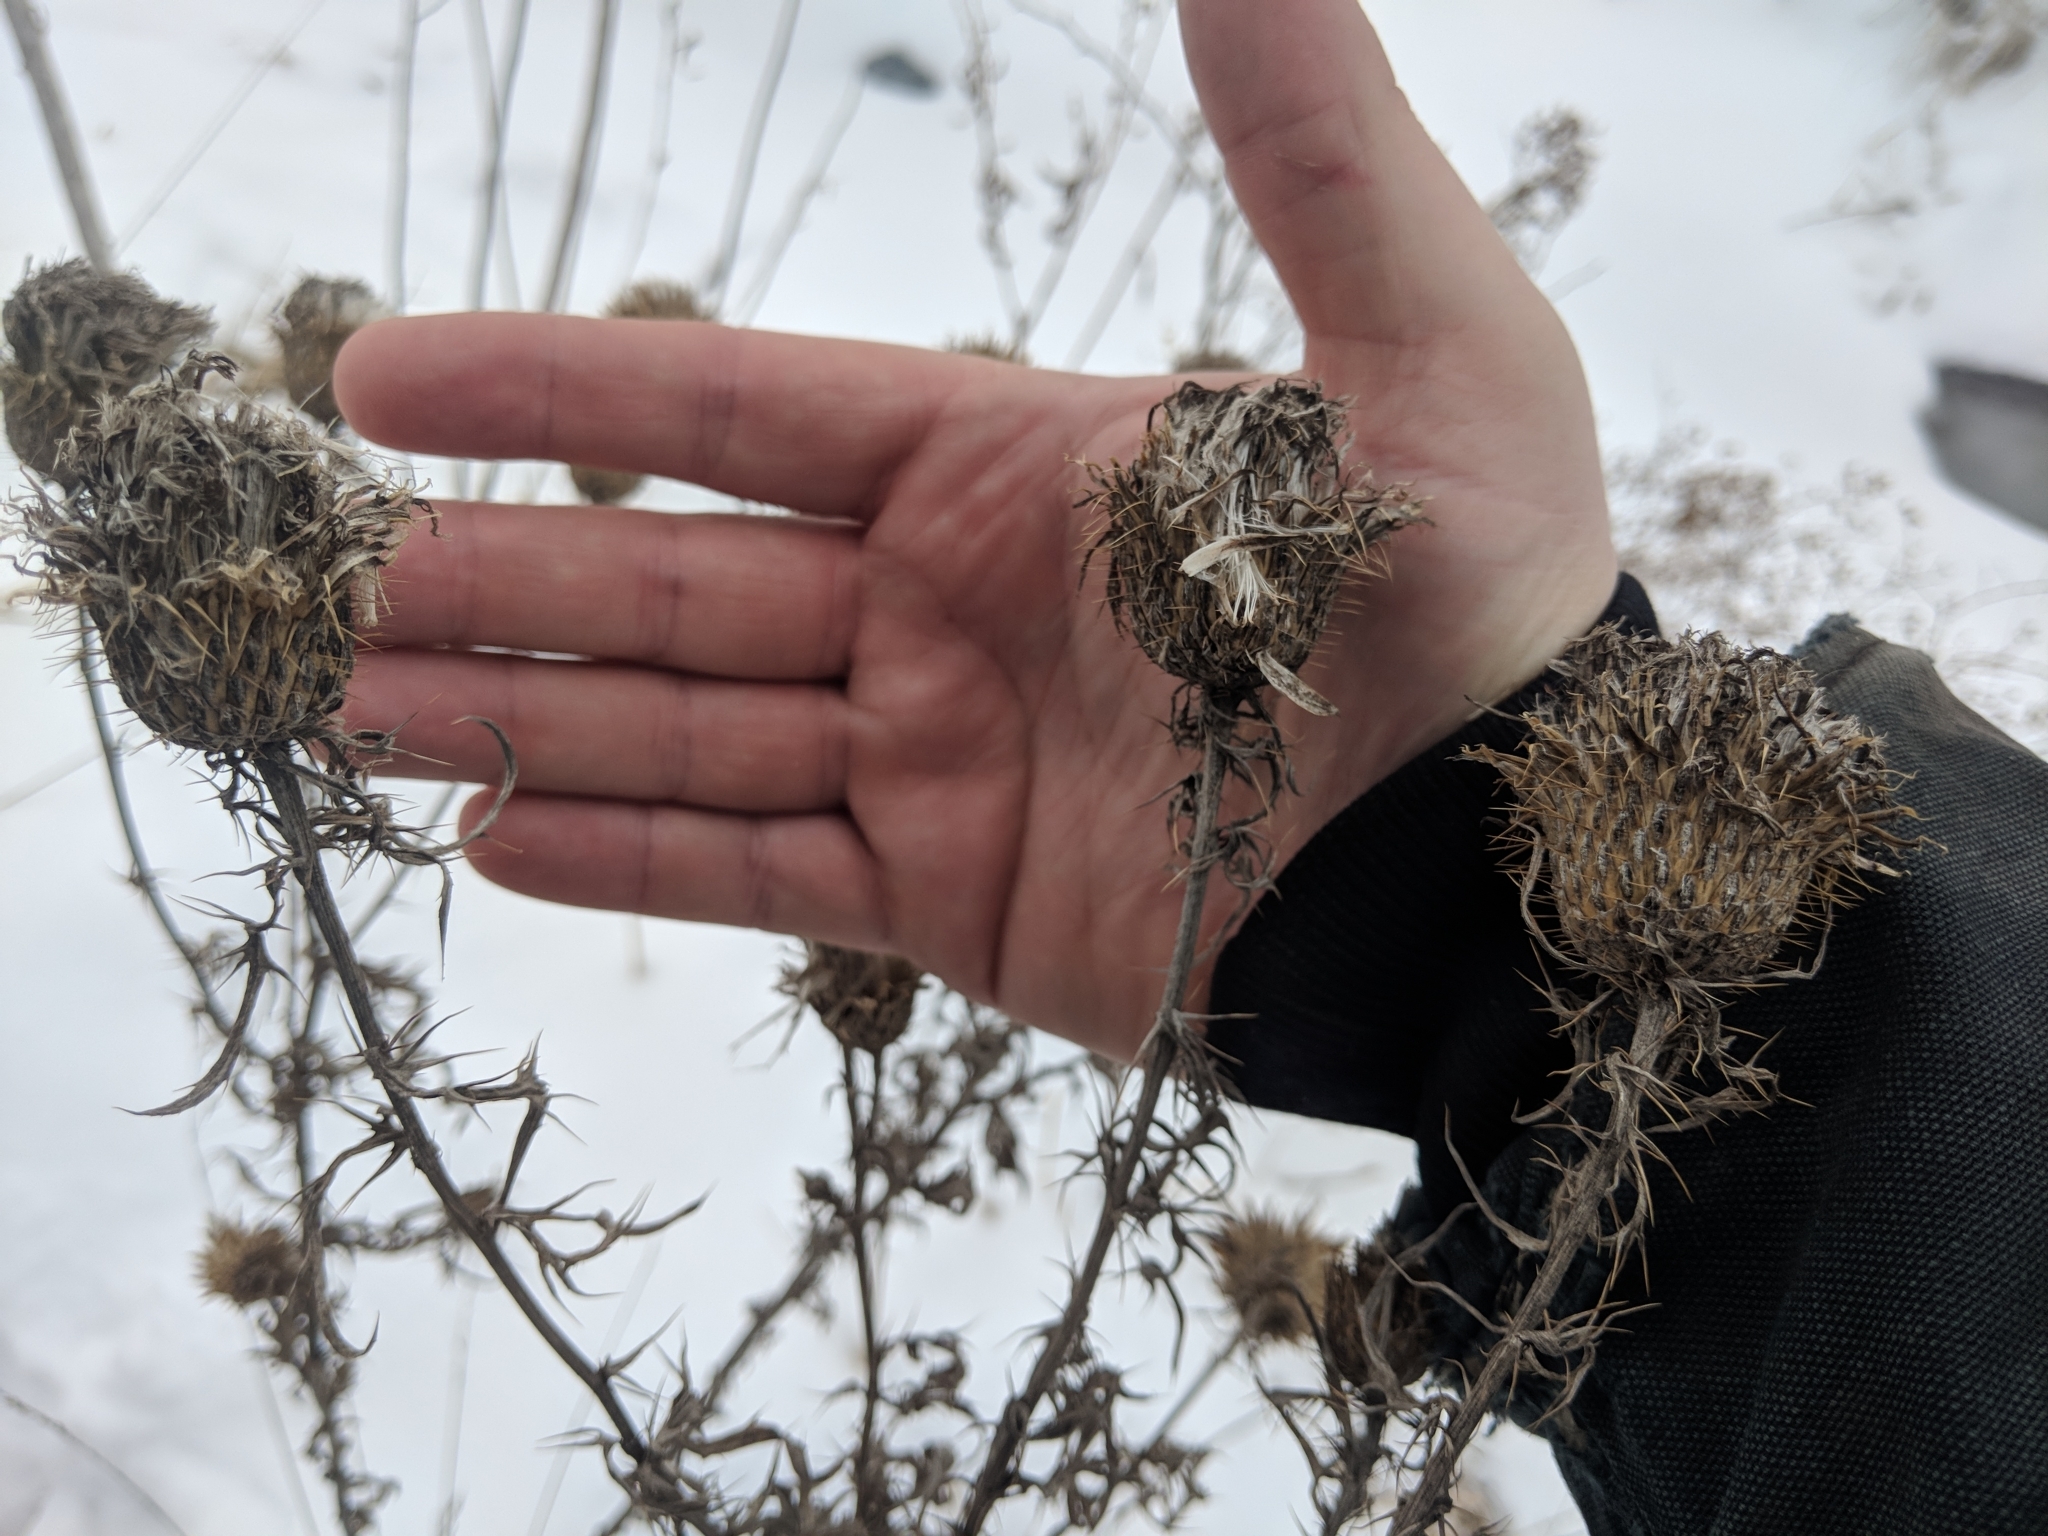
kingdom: Plantae
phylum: Tracheophyta
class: Magnoliopsida
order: Asterales
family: Asteraceae
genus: Cirsium
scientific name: Cirsium discolor
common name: Field thistle
